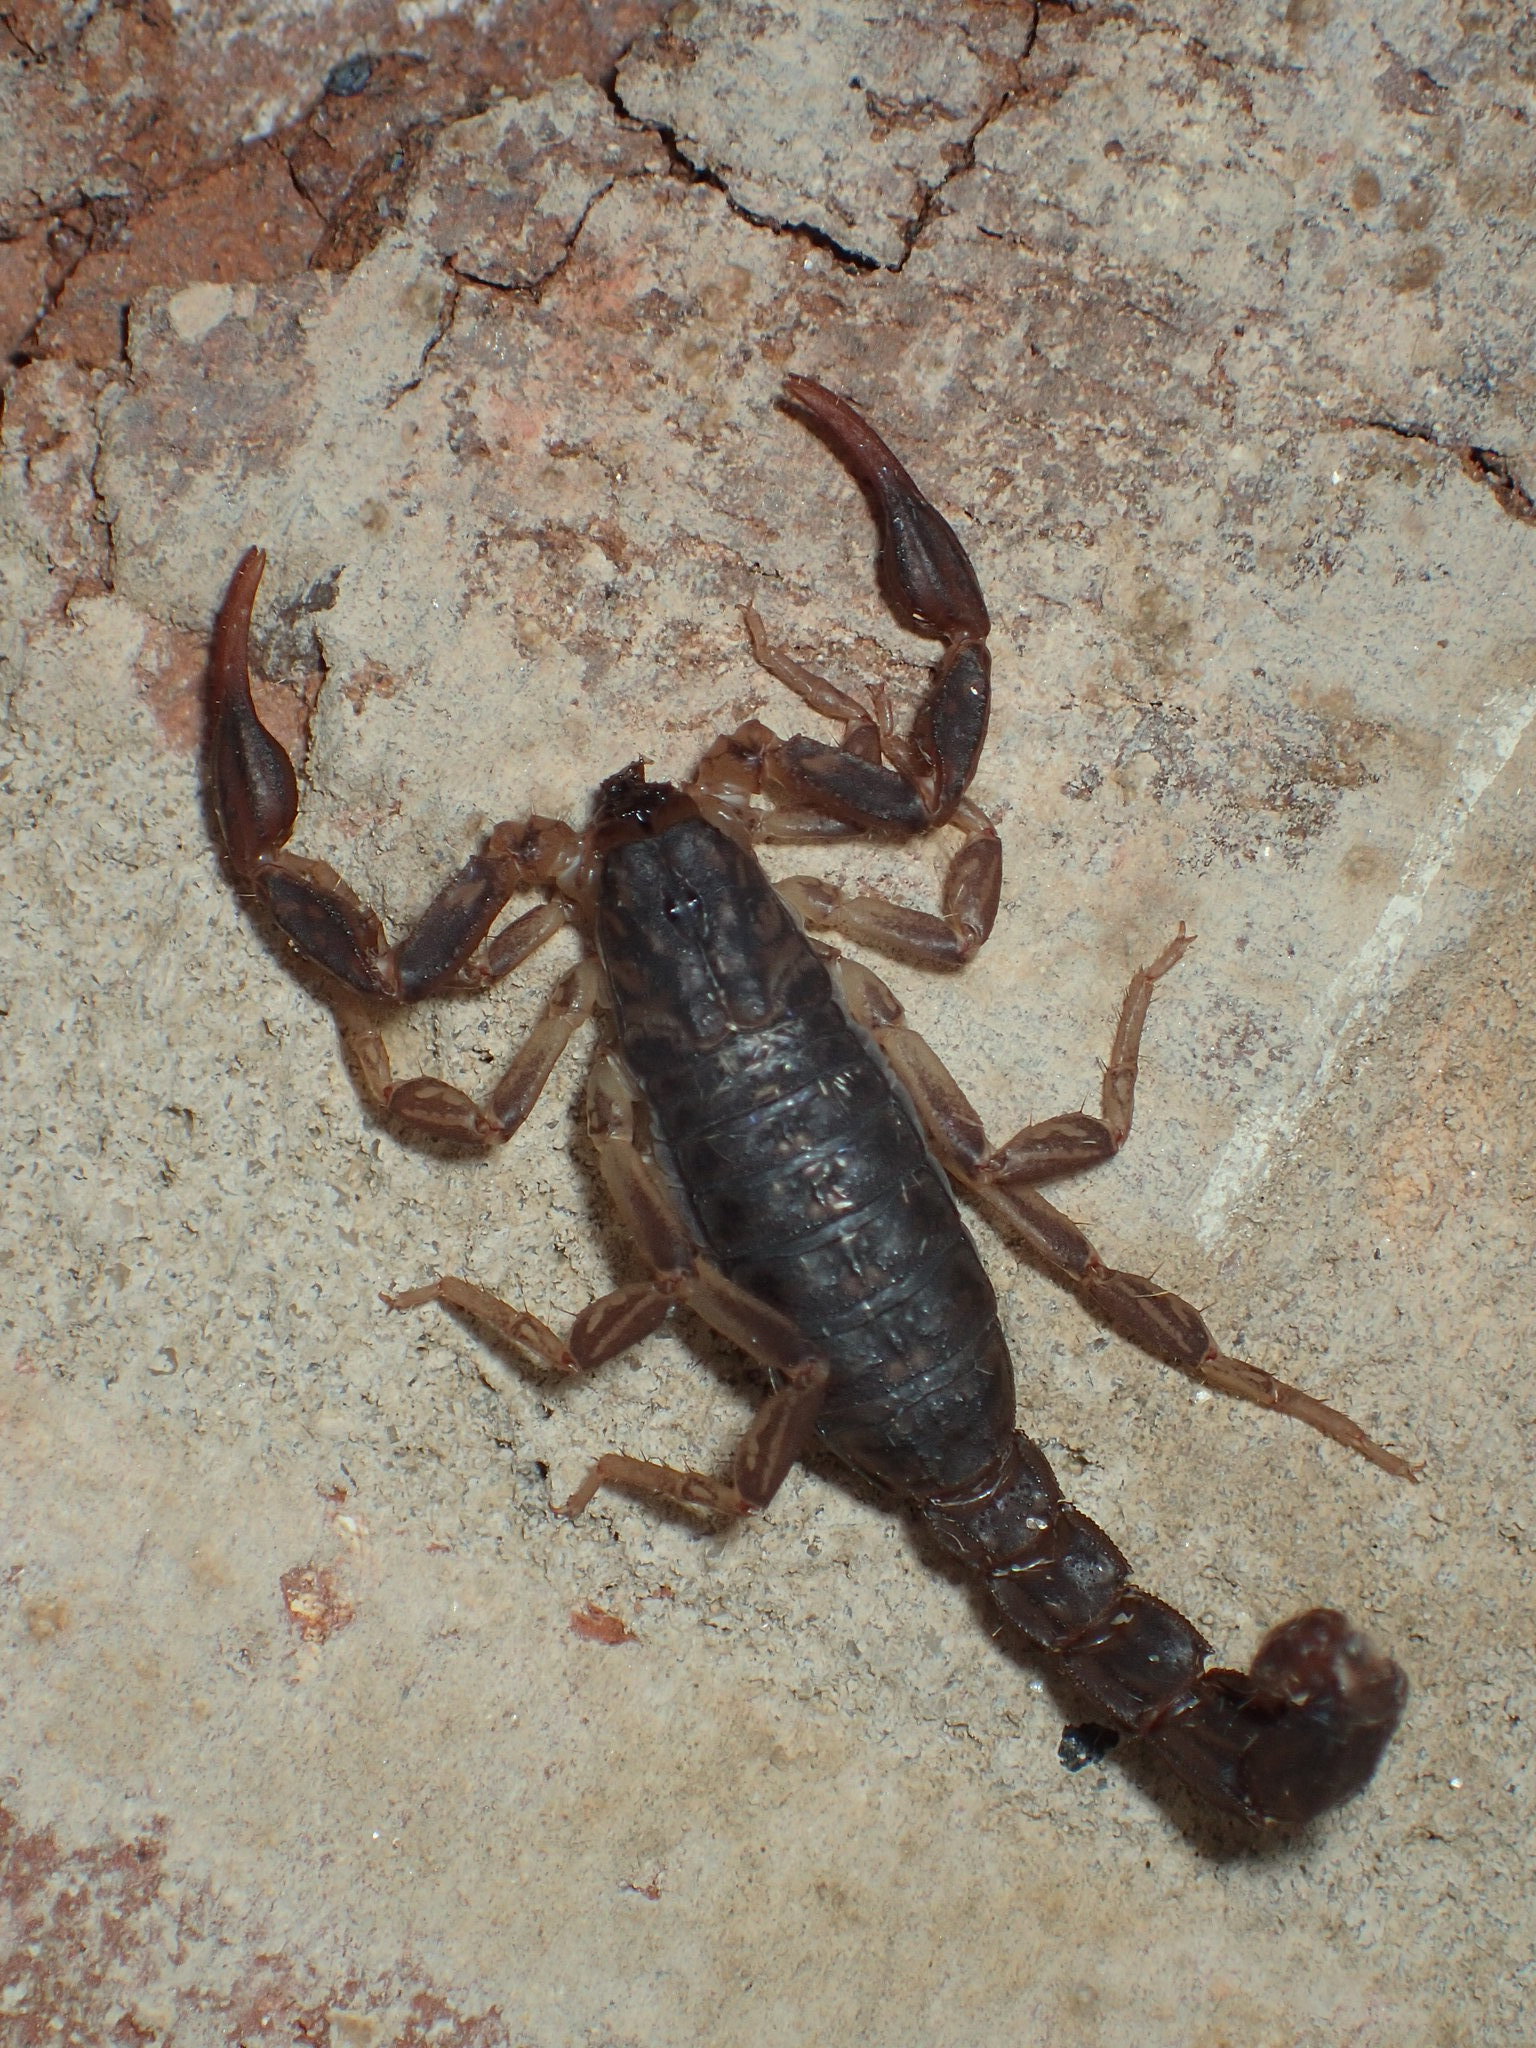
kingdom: Animalia
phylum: Arthropoda
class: Arachnida
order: Scorpiones
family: Vaejovidae
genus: Vaejovis
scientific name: Vaejovis carolinianus
